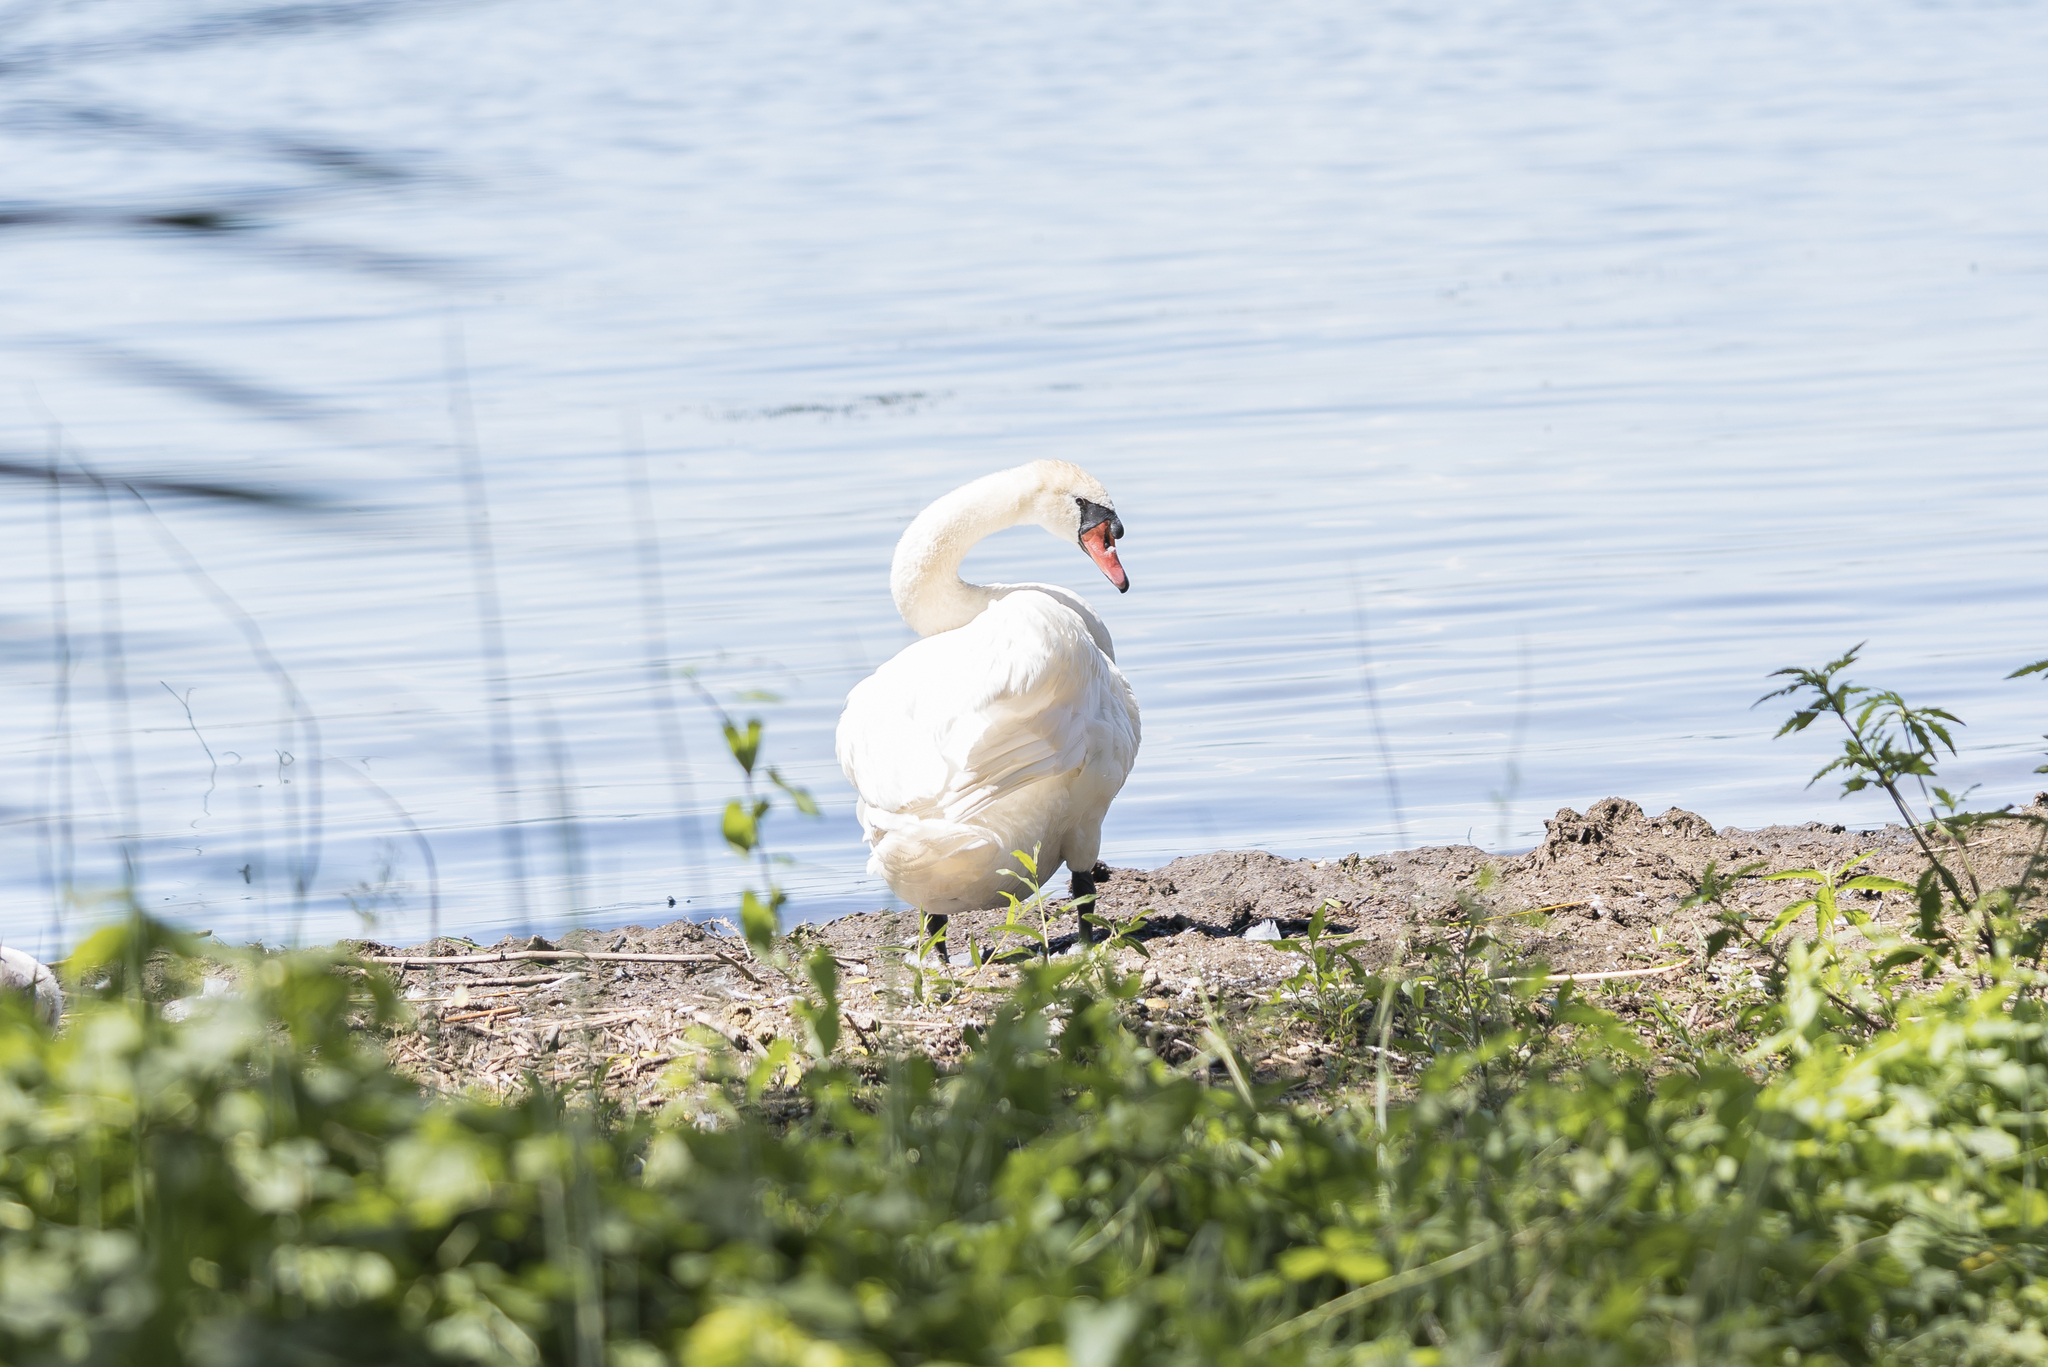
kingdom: Animalia
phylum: Chordata
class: Aves
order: Anseriformes
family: Anatidae
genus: Cygnus
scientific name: Cygnus olor
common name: Mute swan
